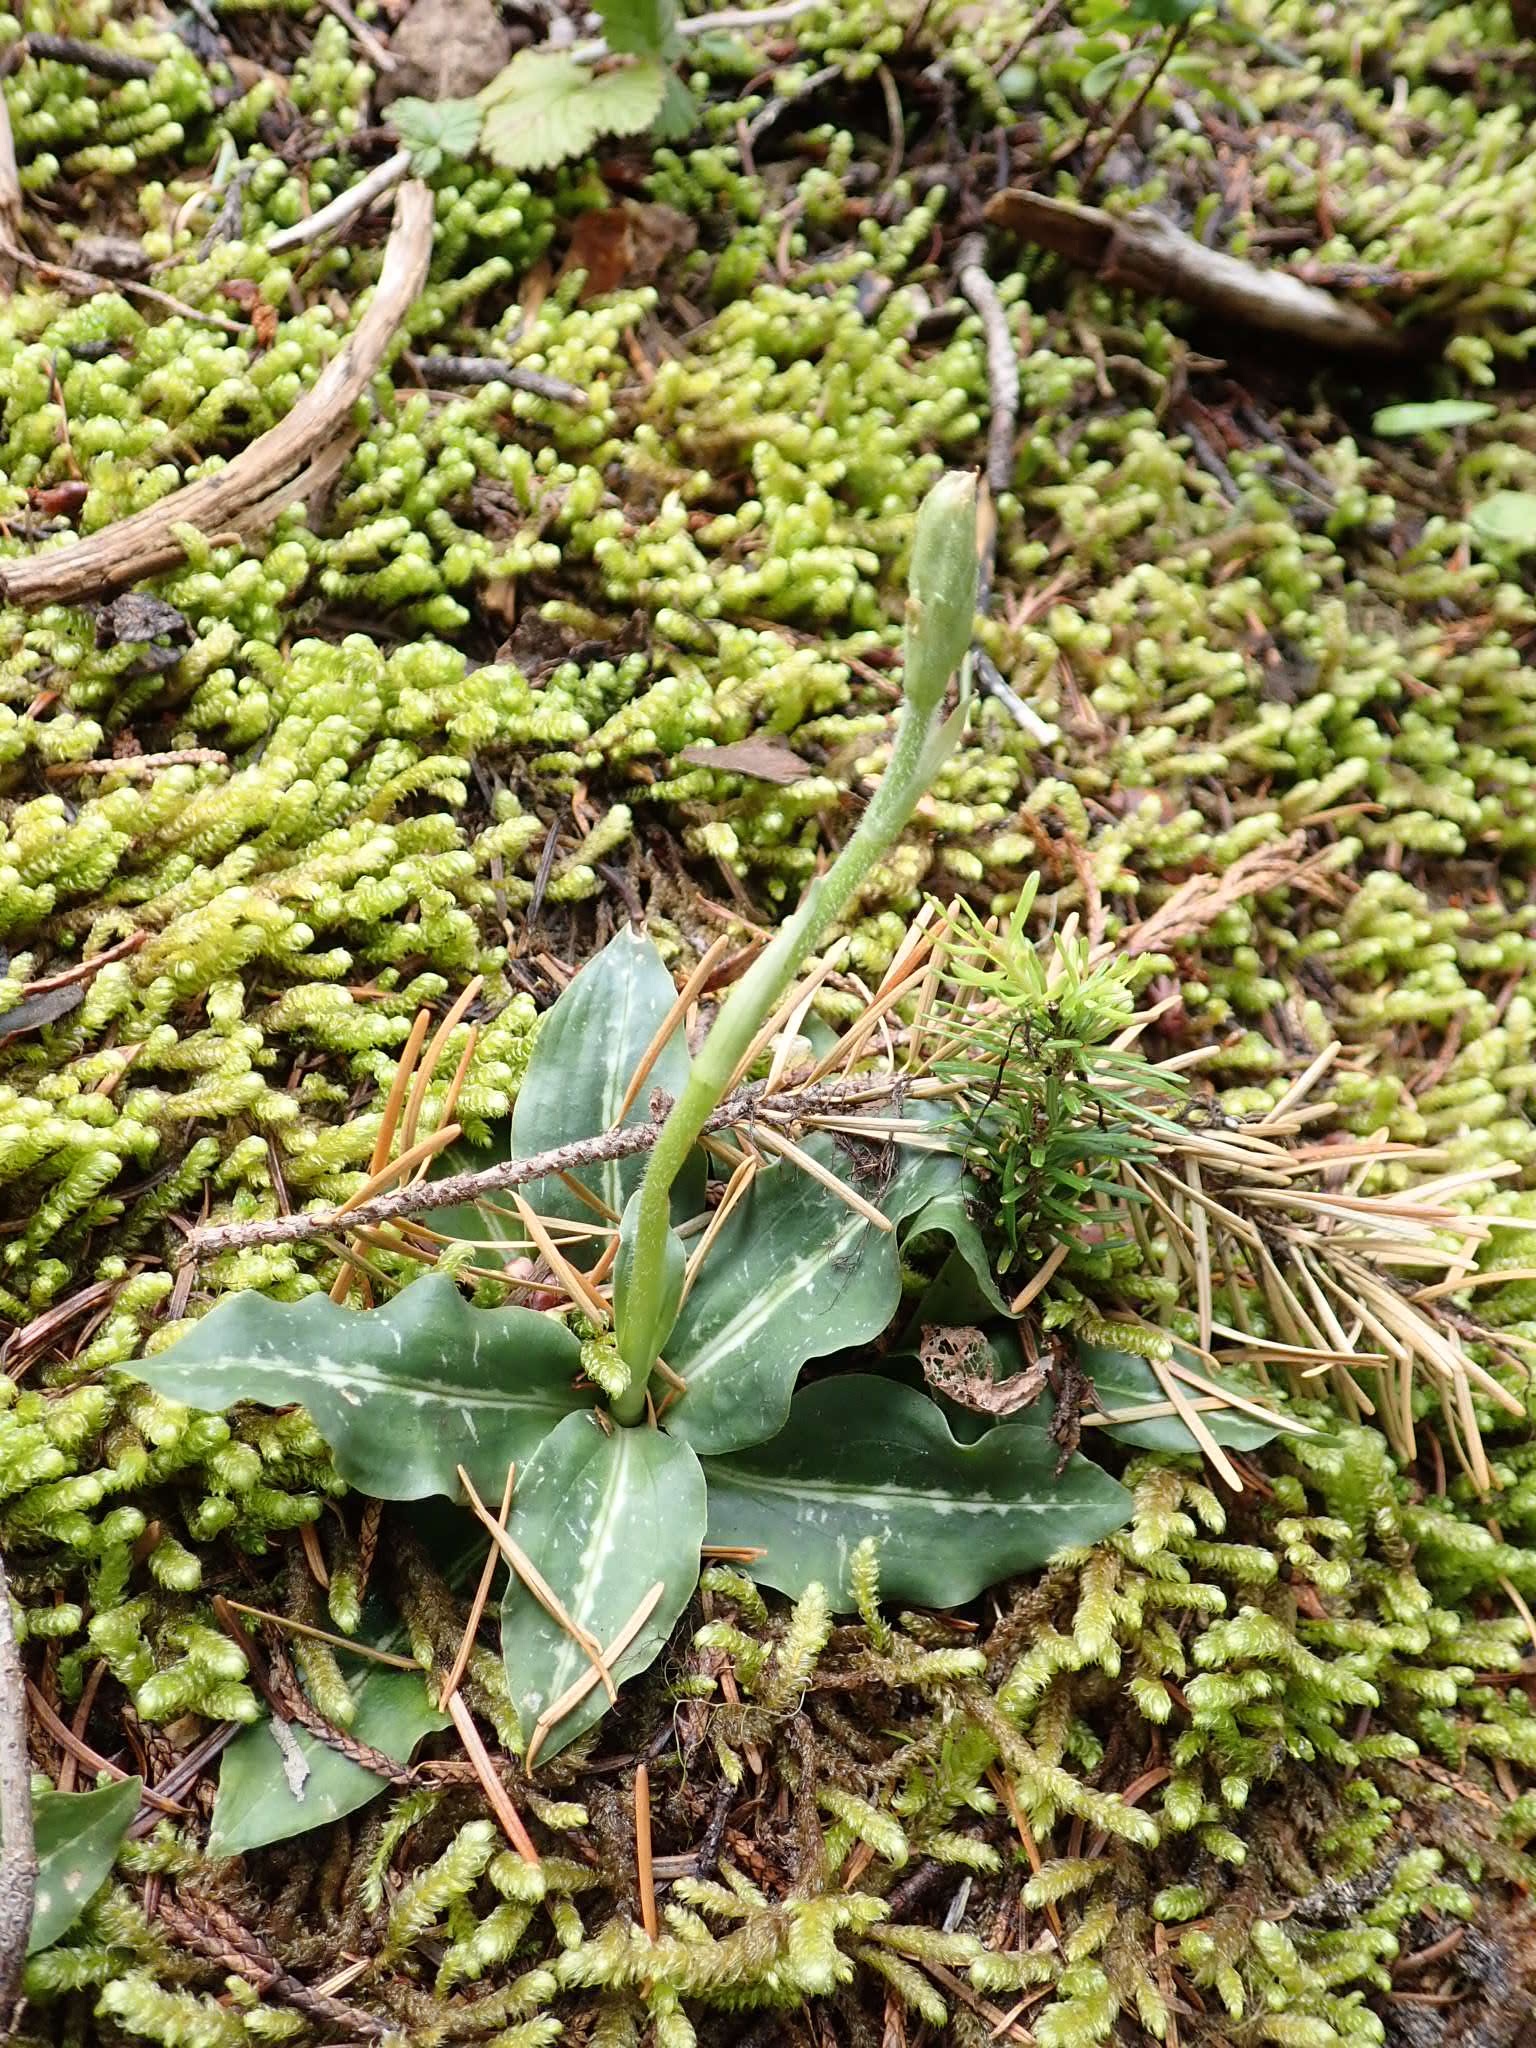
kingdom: Plantae
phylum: Tracheophyta
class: Liliopsida
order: Asparagales
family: Orchidaceae
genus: Goodyera
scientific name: Goodyera oblongifolia
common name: Giant rattlesnake-plantain
